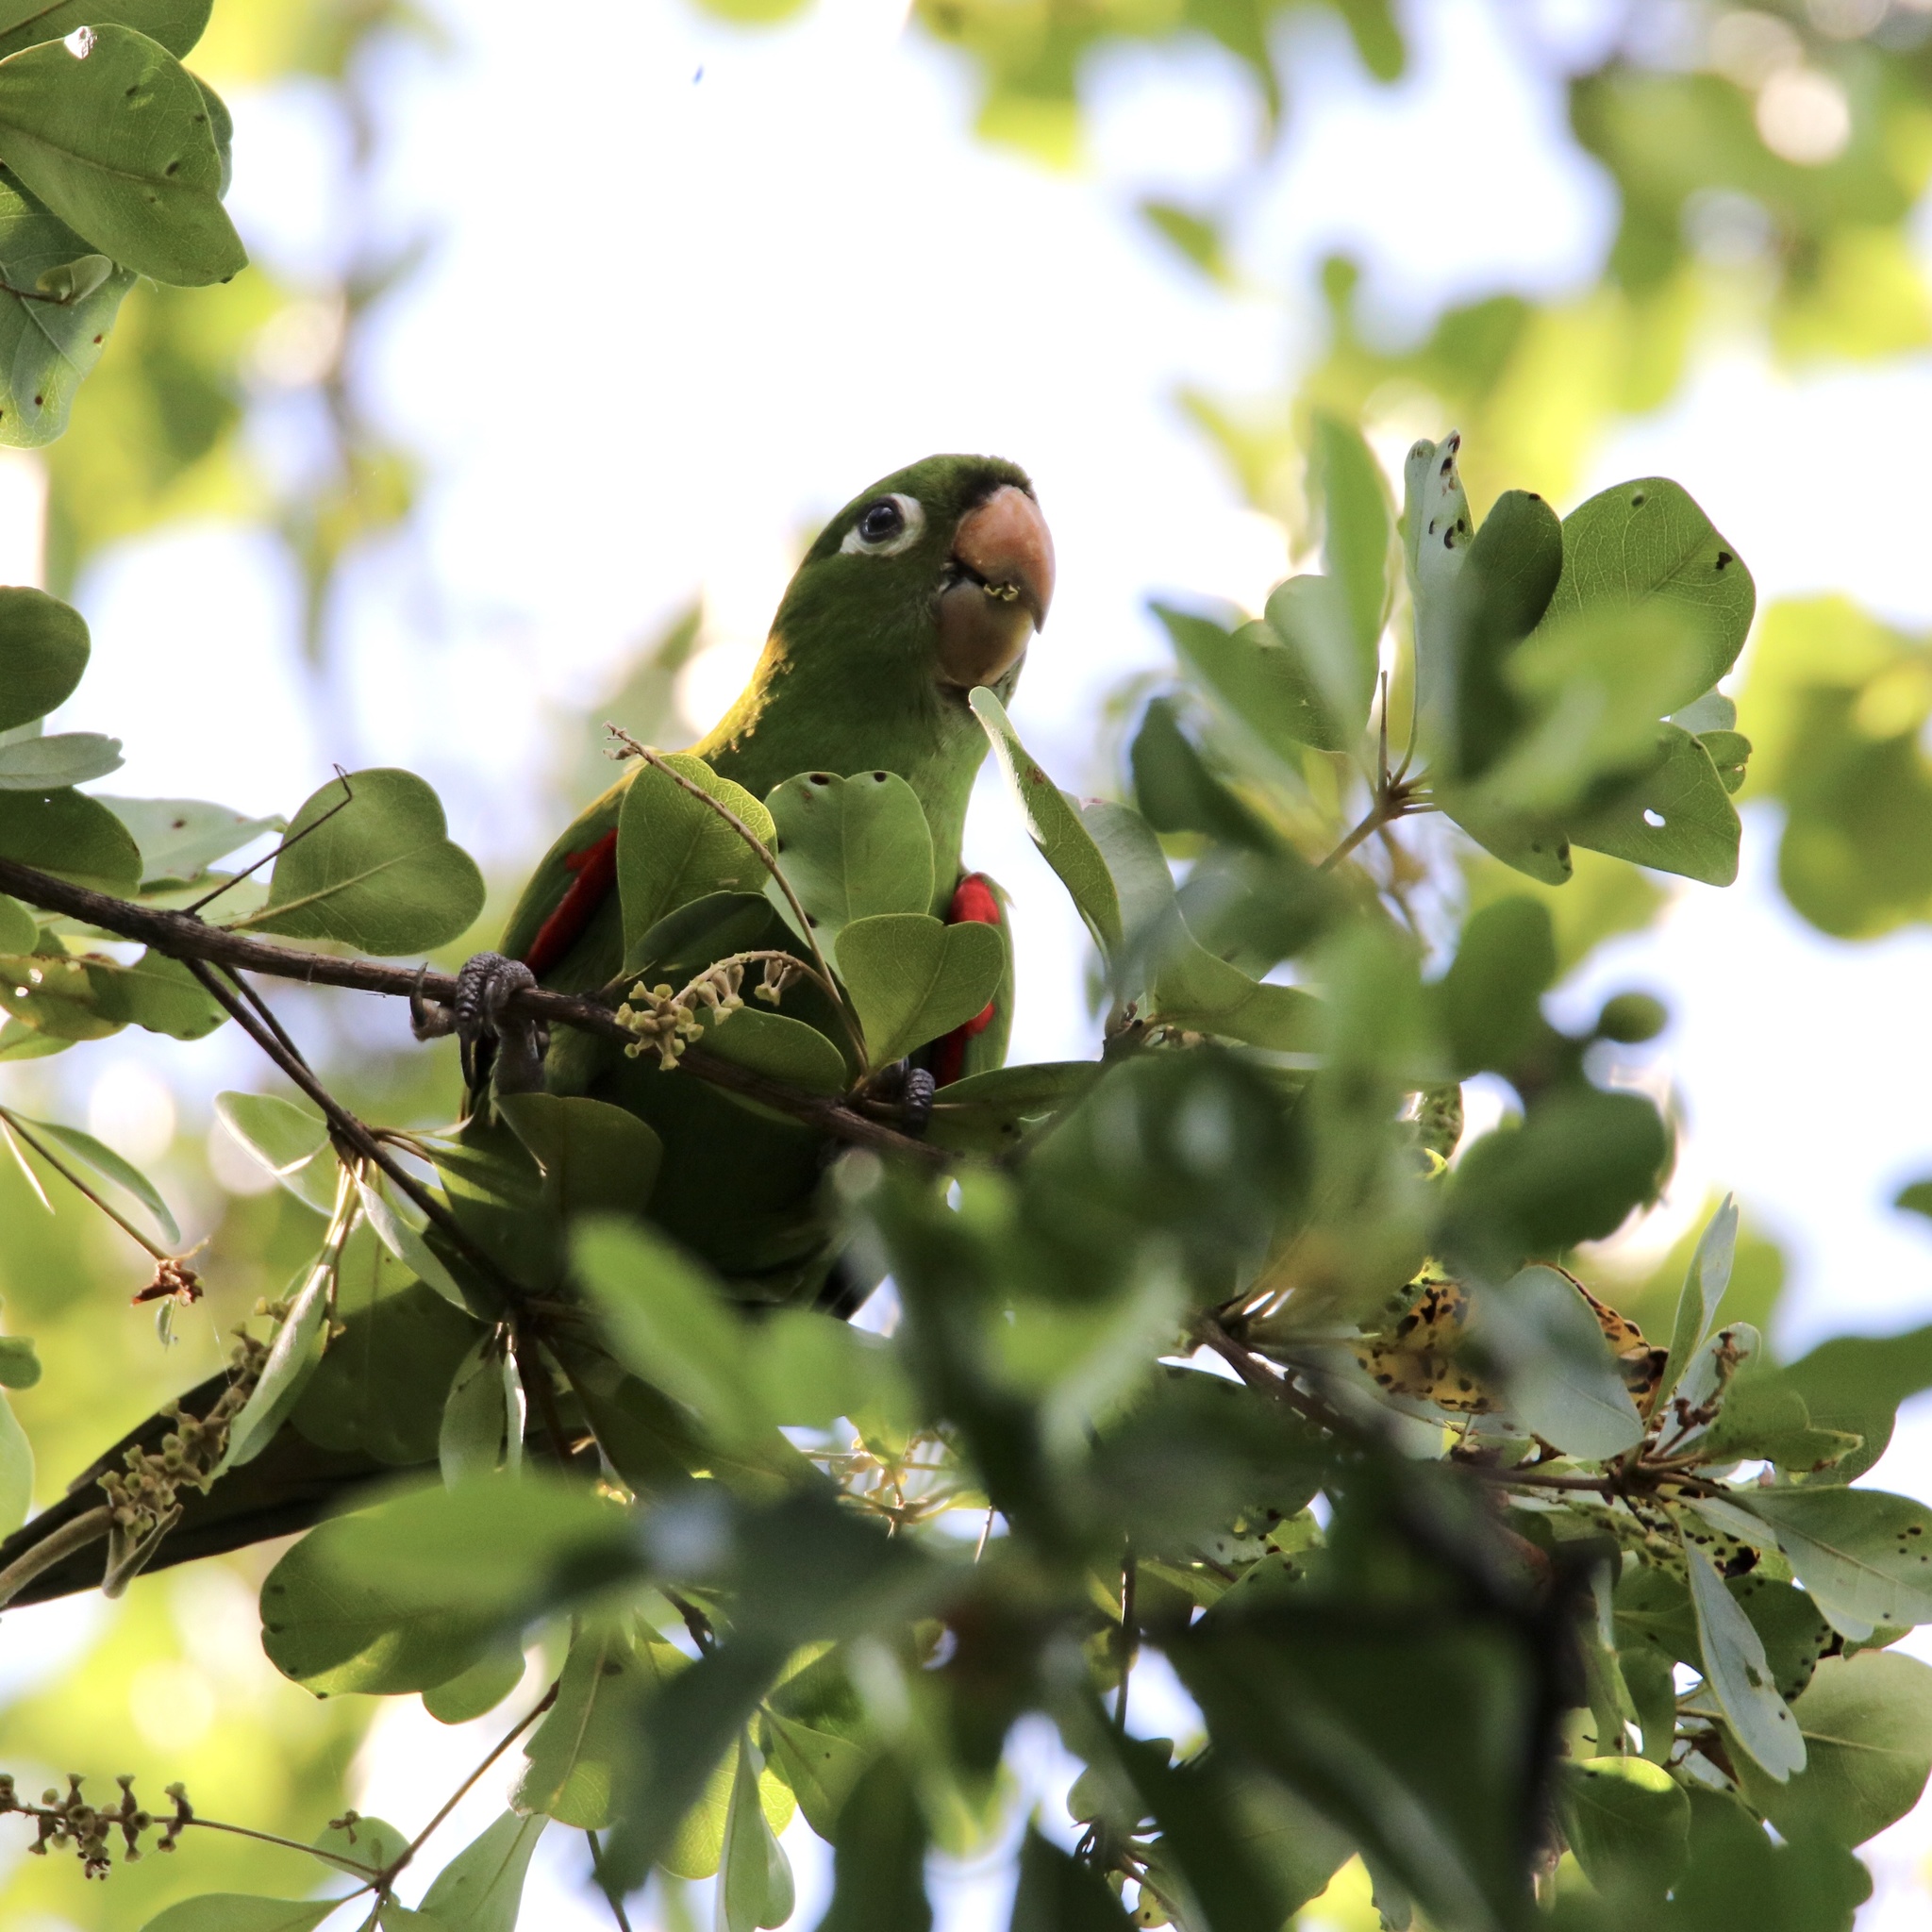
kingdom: Animalia
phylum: Chordata
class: Aves
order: Psittaciformes
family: Psittacidae
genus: Aratinga
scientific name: Aratinga chloroptera
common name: Hispaniolan parakeet
